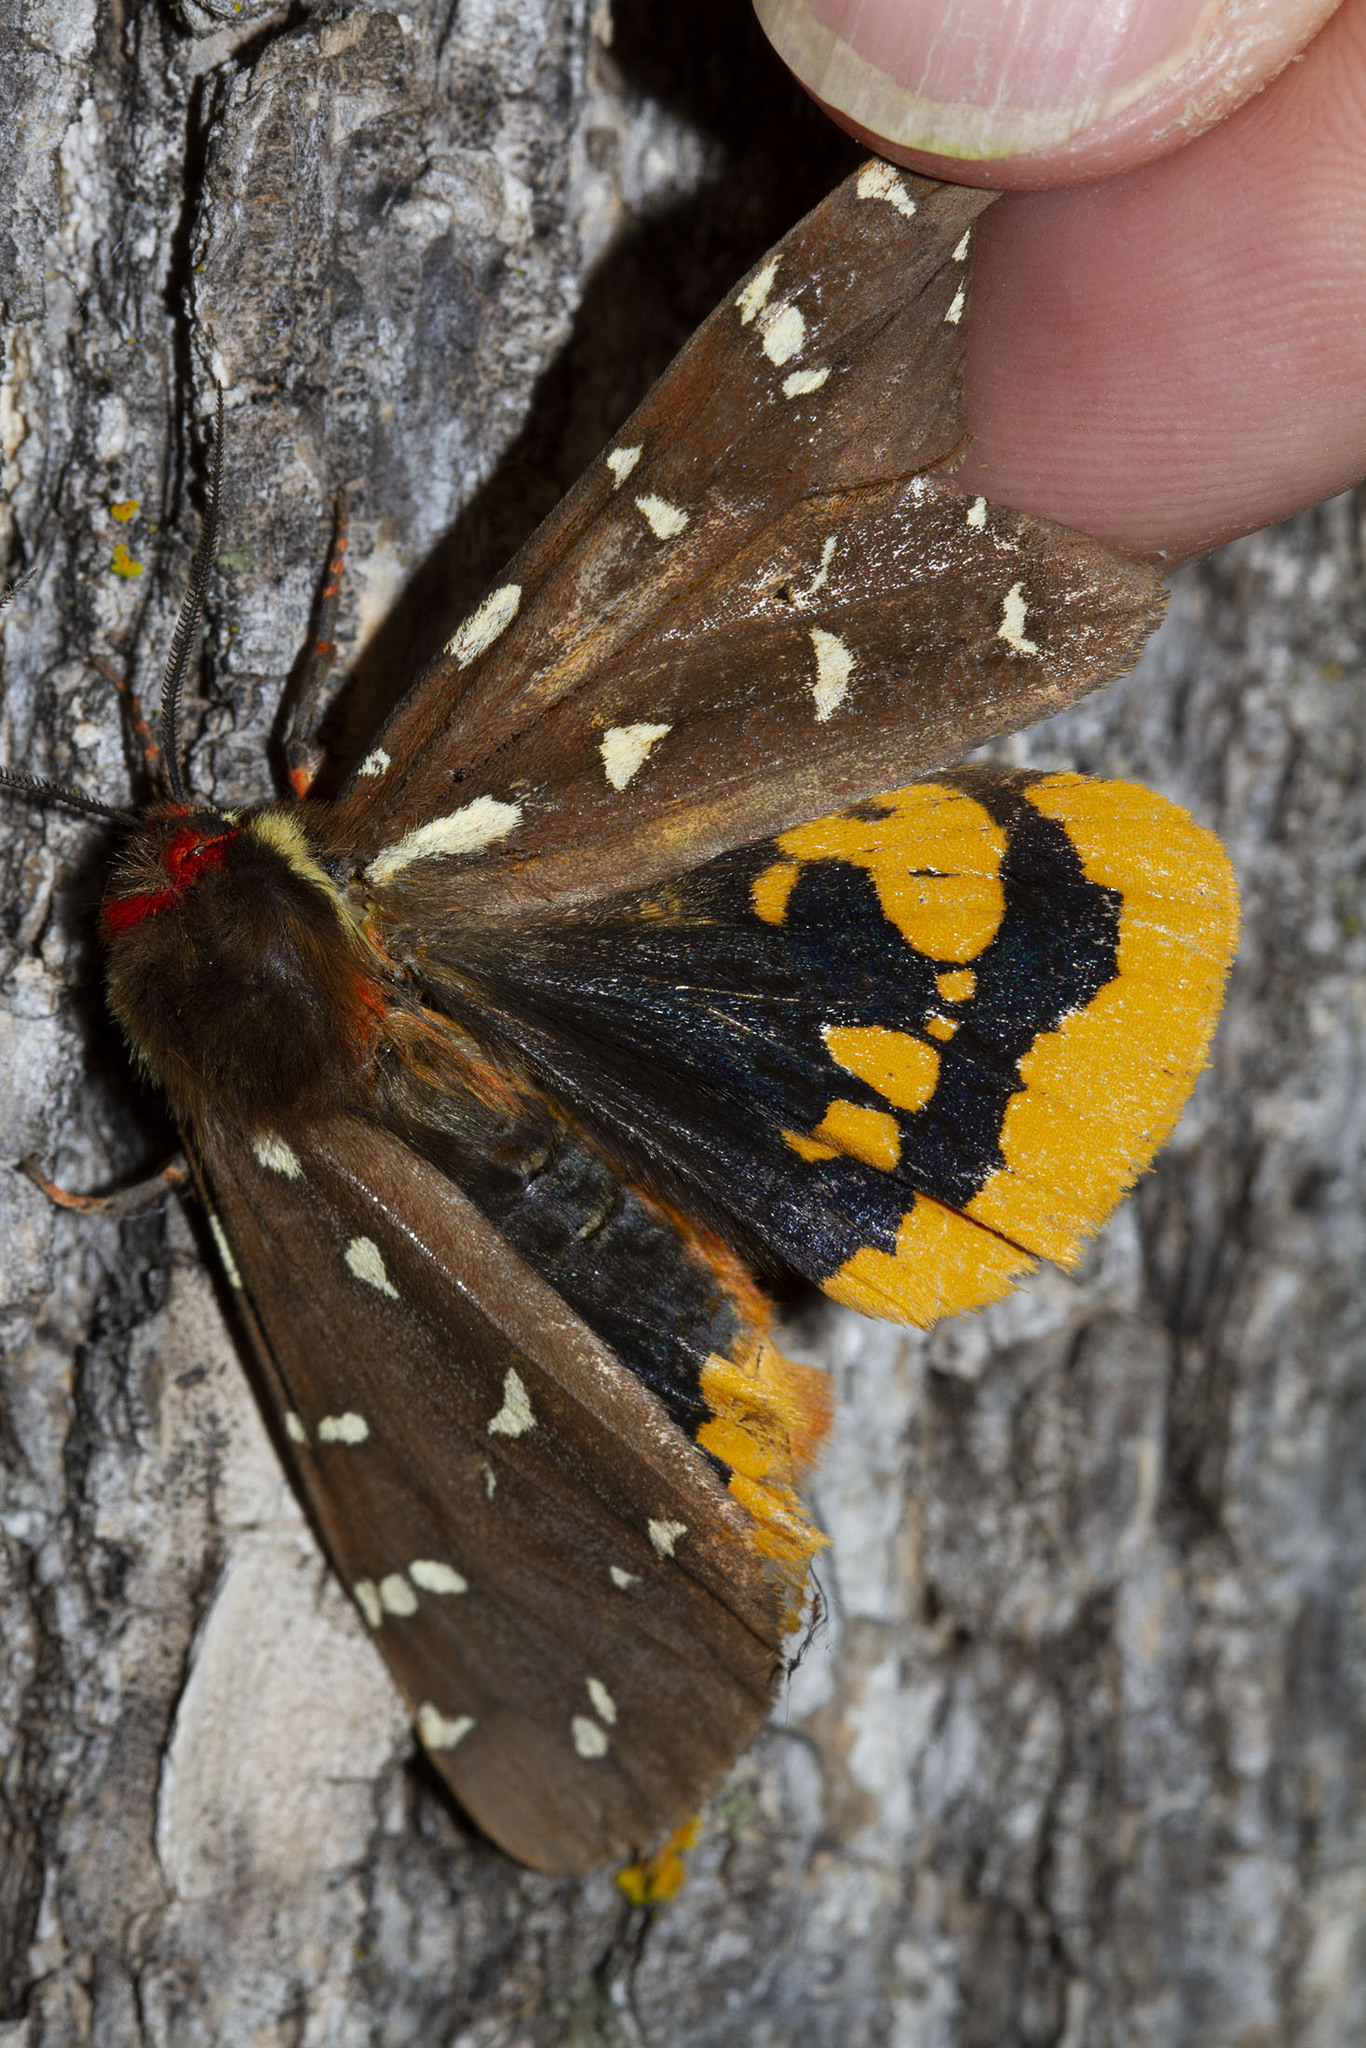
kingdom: Animalia
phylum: Arthropoda
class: Insecta
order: Lepidoptera
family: Erebidae
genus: Arctia
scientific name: Arctia parthenos
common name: St. lawrence tiger moth
